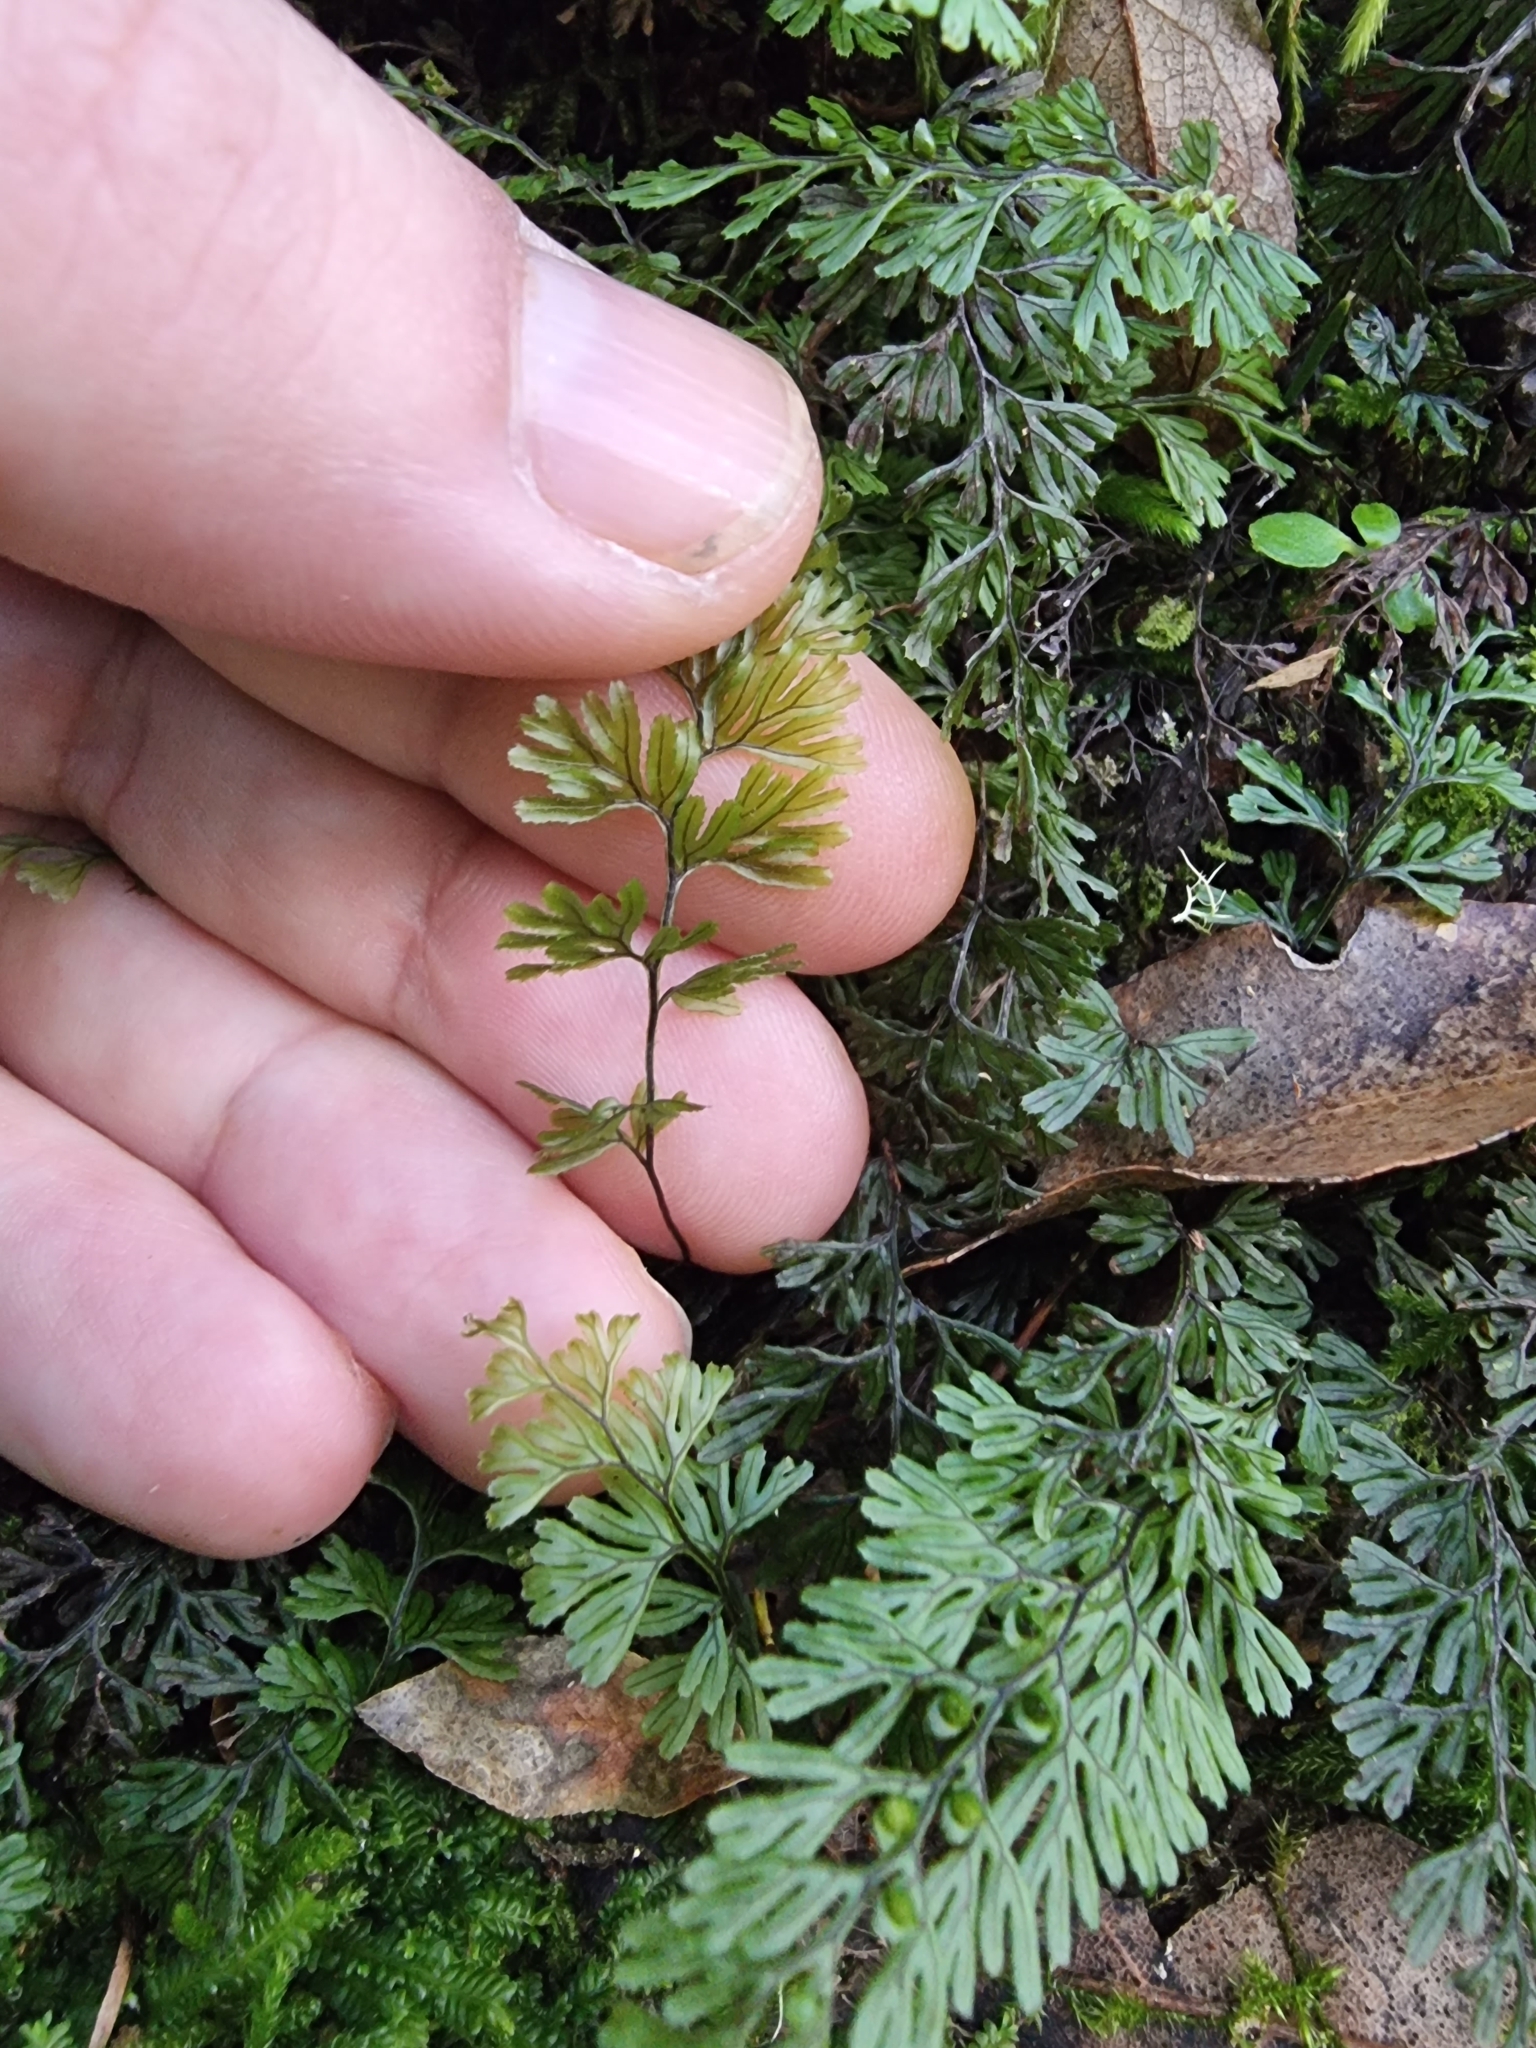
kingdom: Plantae
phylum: Tracheophyta
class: Polypodiopsida
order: Hymenophyllales
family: Hymenophyllaceae
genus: Hymenophyllum
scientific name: Hymenophyllum tunbrigense
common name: Tunbridge filmy fern
